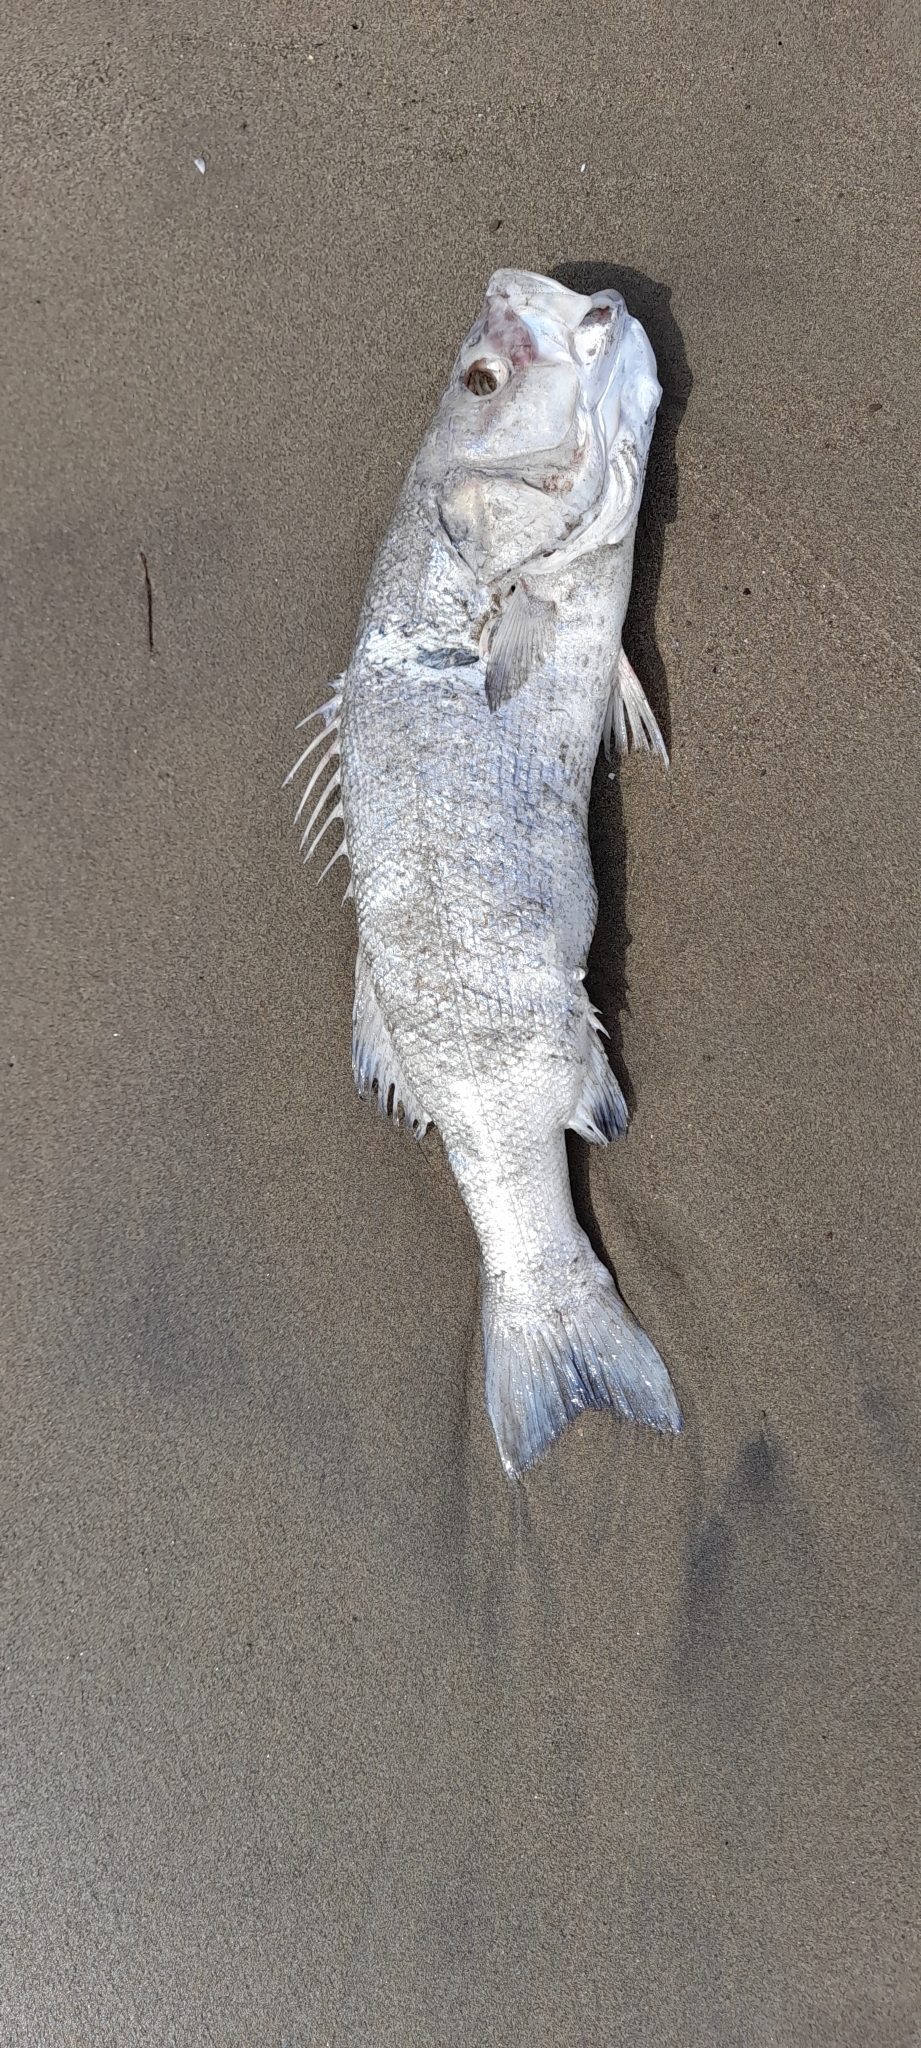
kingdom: Animalia
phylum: Chordata
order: Perciformes
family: Moronidae
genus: Dicentrarchus
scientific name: Dicentrarchus labrax
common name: European seabass
